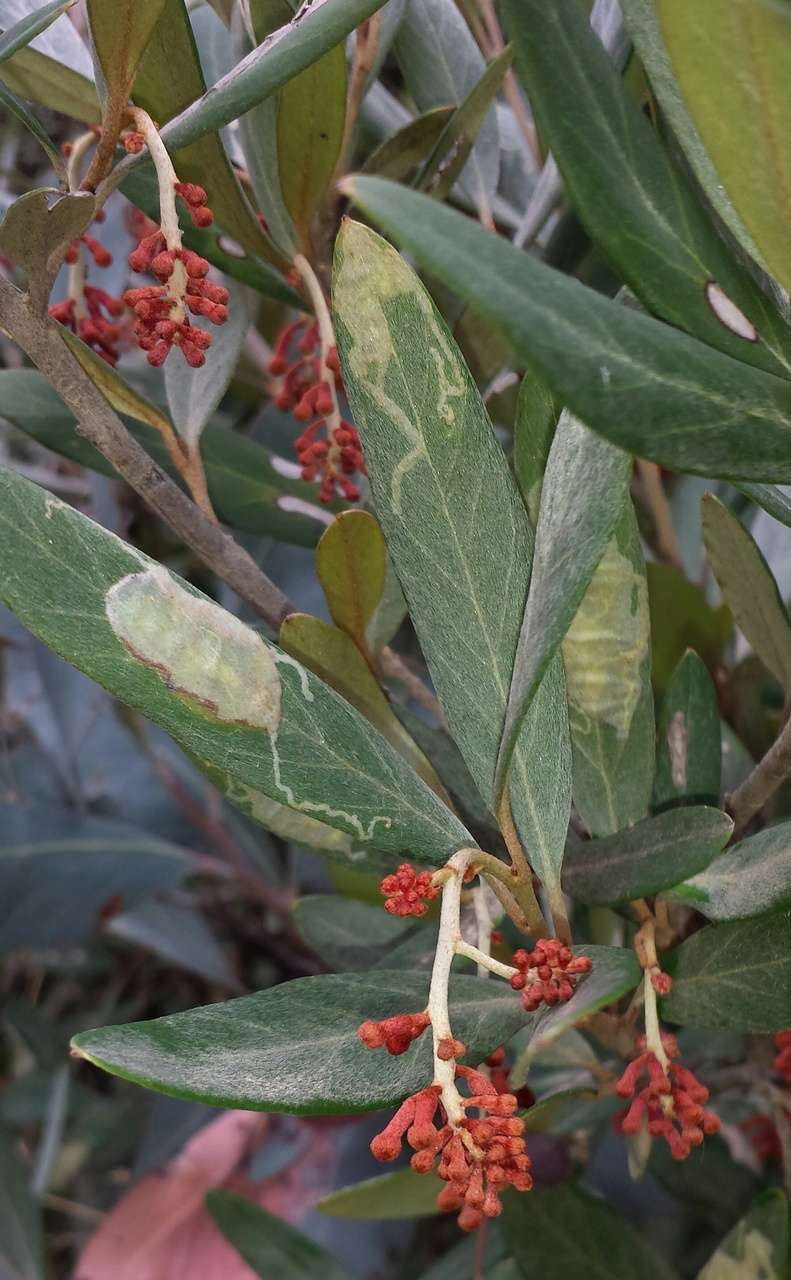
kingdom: Plantae
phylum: Tracheophyta
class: Magnoliopsida
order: Proteales
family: Proteaceae
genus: Grevillea
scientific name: Grevillea victoriae
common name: Royal grevillea
